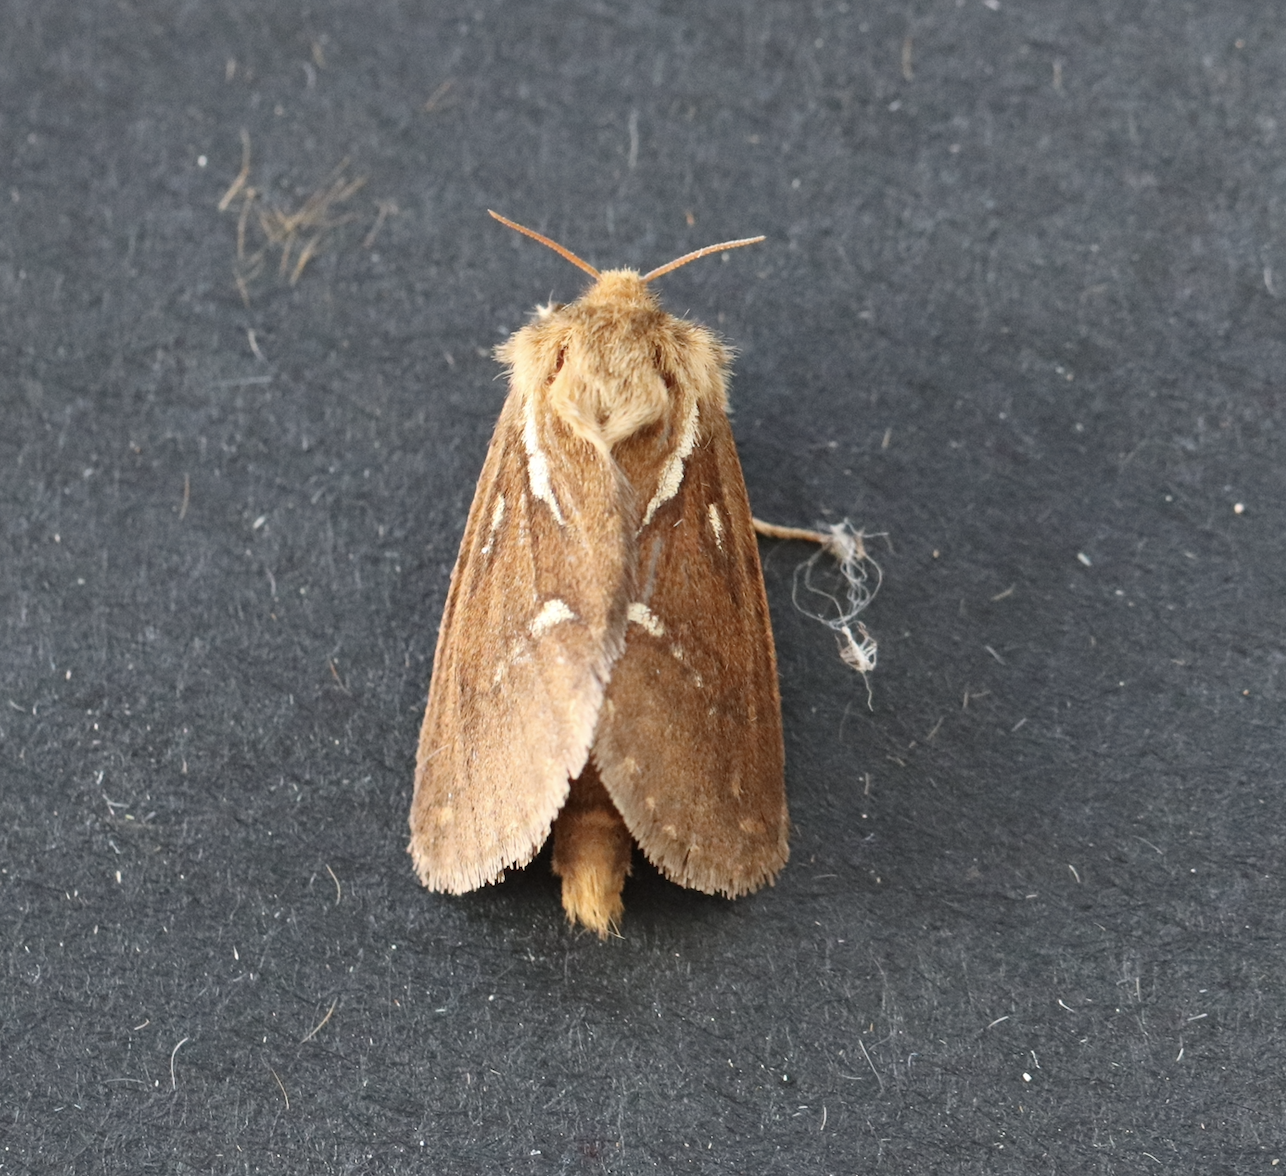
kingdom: Animalia
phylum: Arthropoda
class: Insecta
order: Lepidoptera
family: Hepialidae
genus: Korscheltellus
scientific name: Korscheltellus lupulina
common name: Common swift
